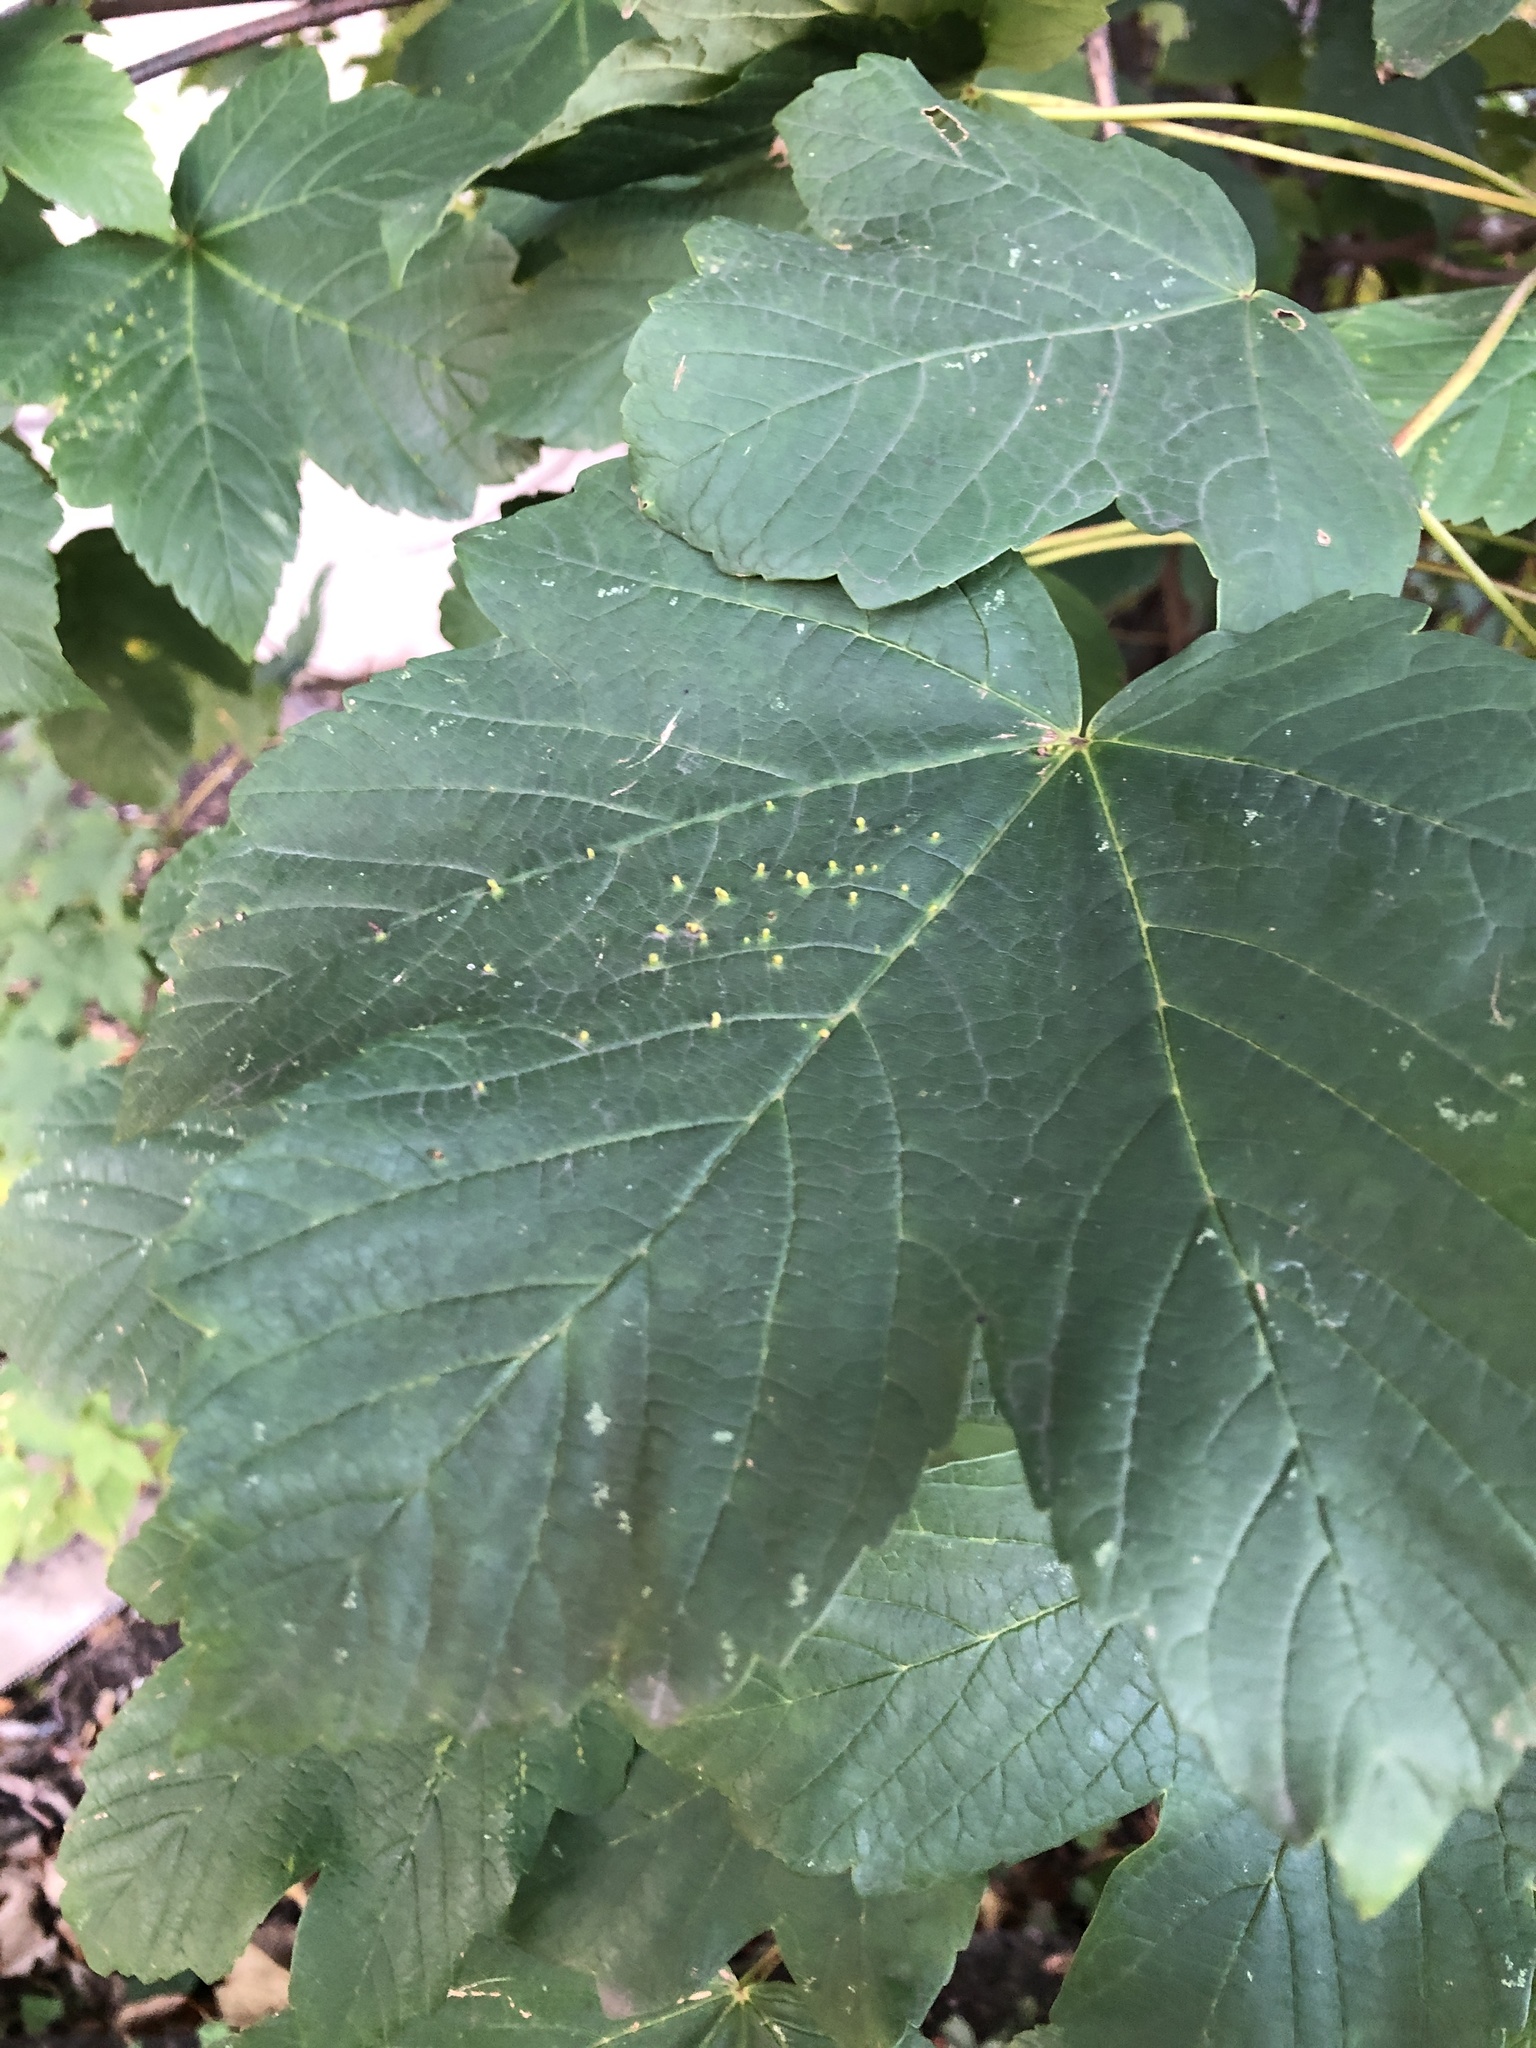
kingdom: Animalia
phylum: Arthropoda
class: Arachnida
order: Trombidiformes
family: Eriophyidae
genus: Aceria
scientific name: Aceria cephaloneus
